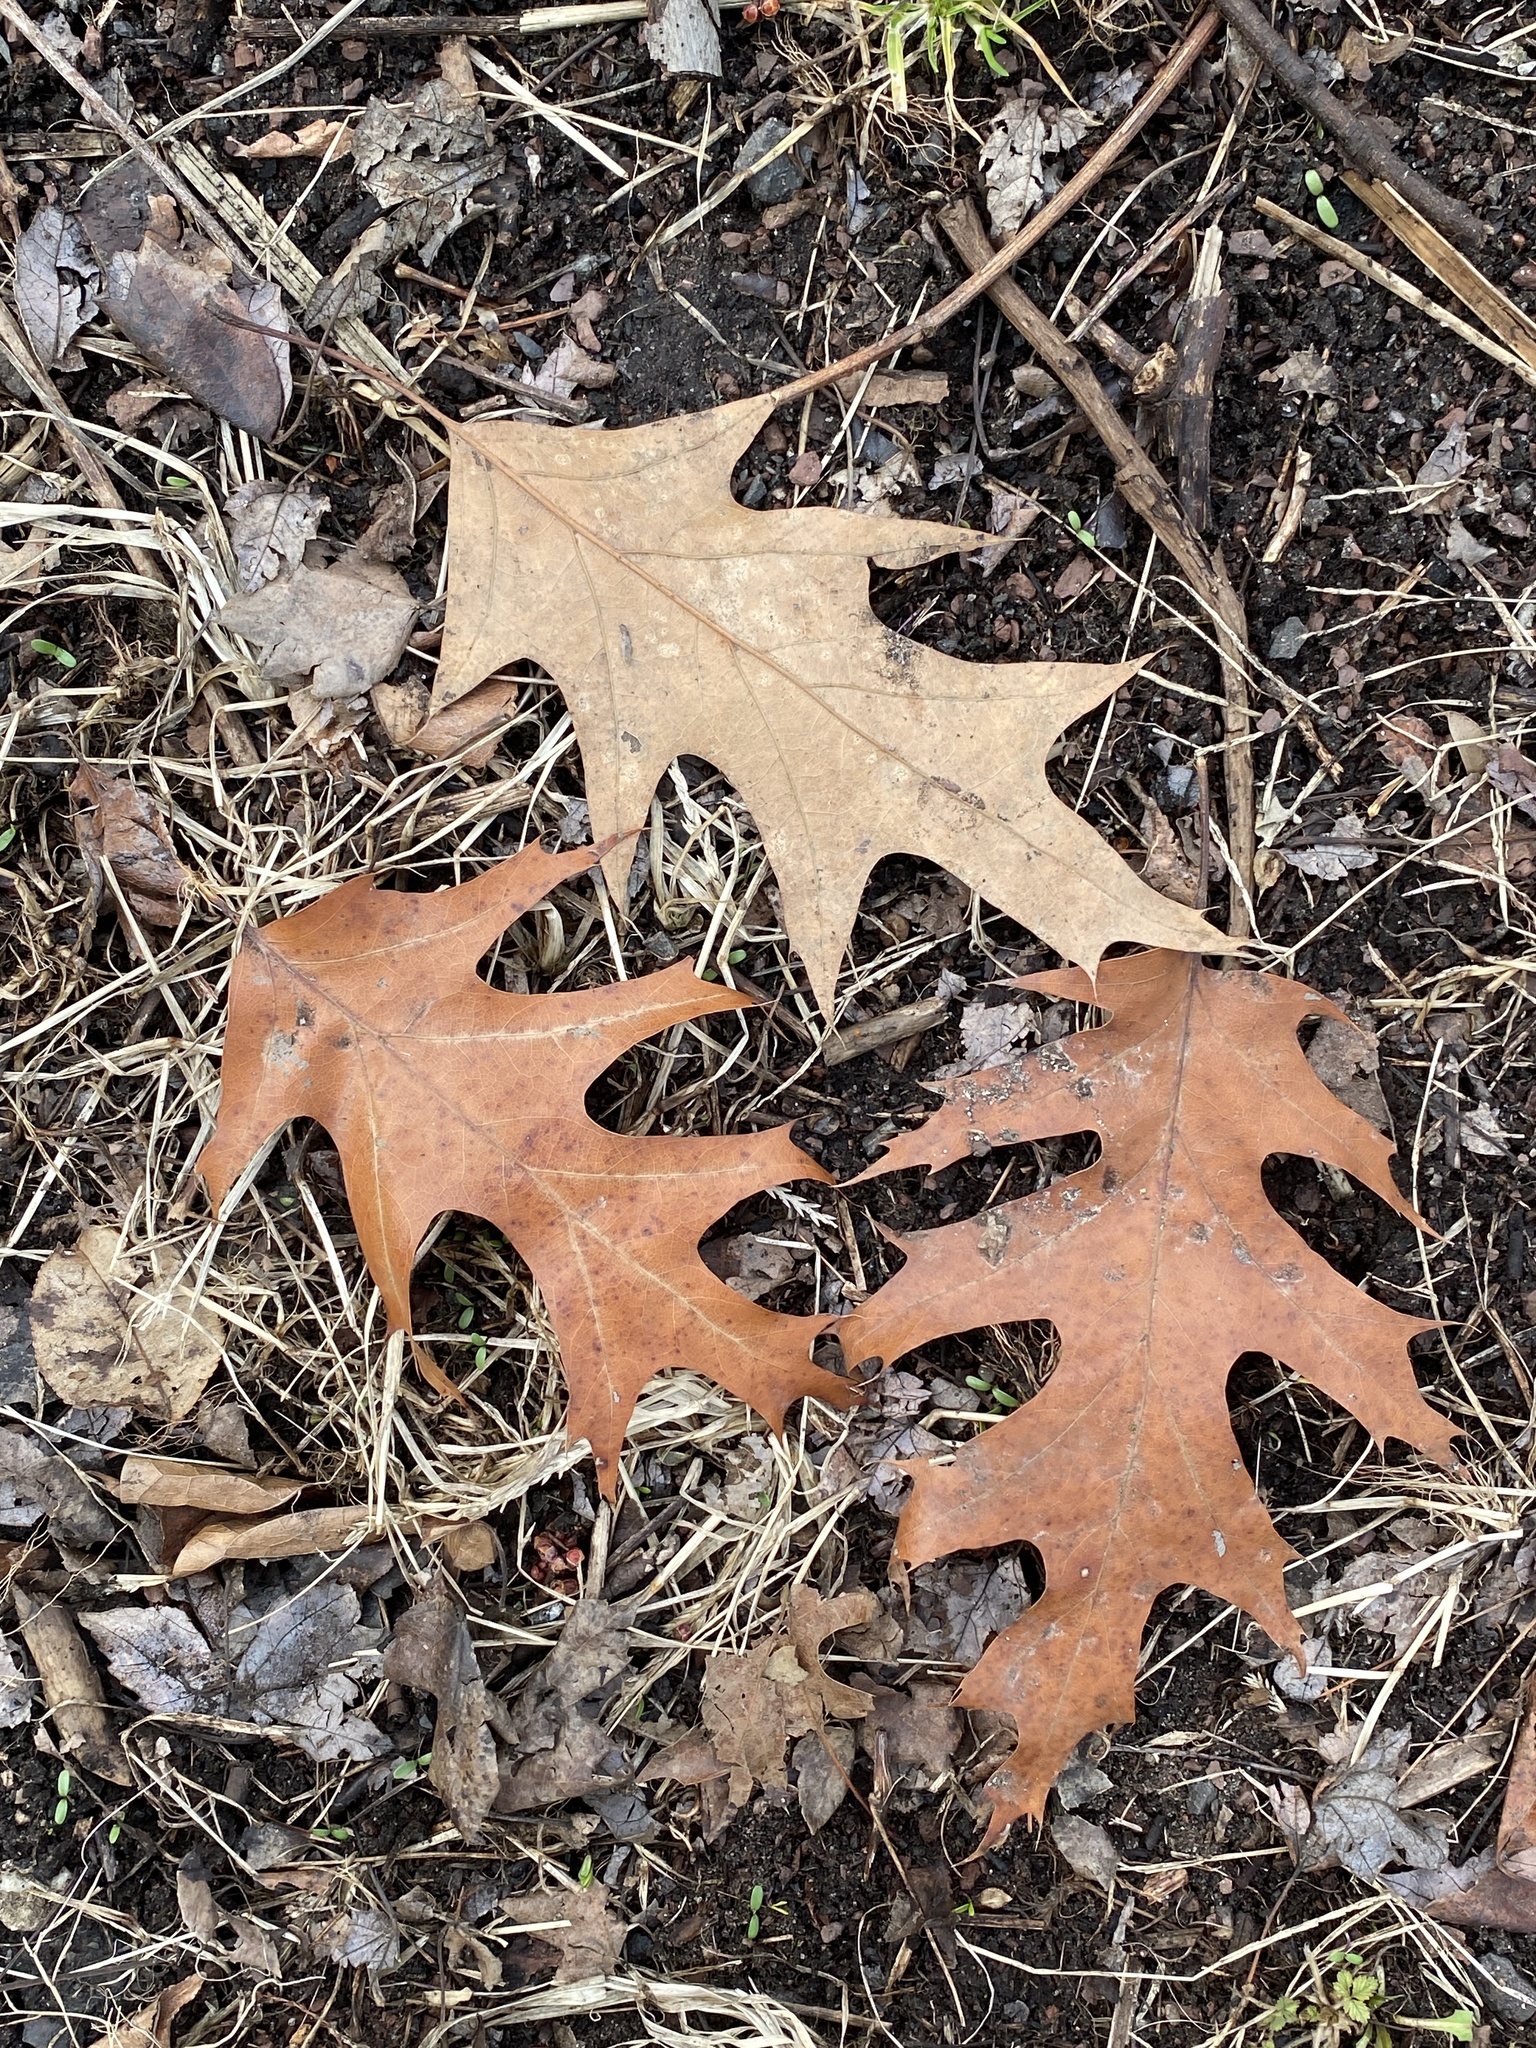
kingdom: Plantae
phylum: Tracheophyta
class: Magnoliopsida
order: Fagales
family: Fagaceae
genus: Quercus
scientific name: Quercus rubra
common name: Red oak
